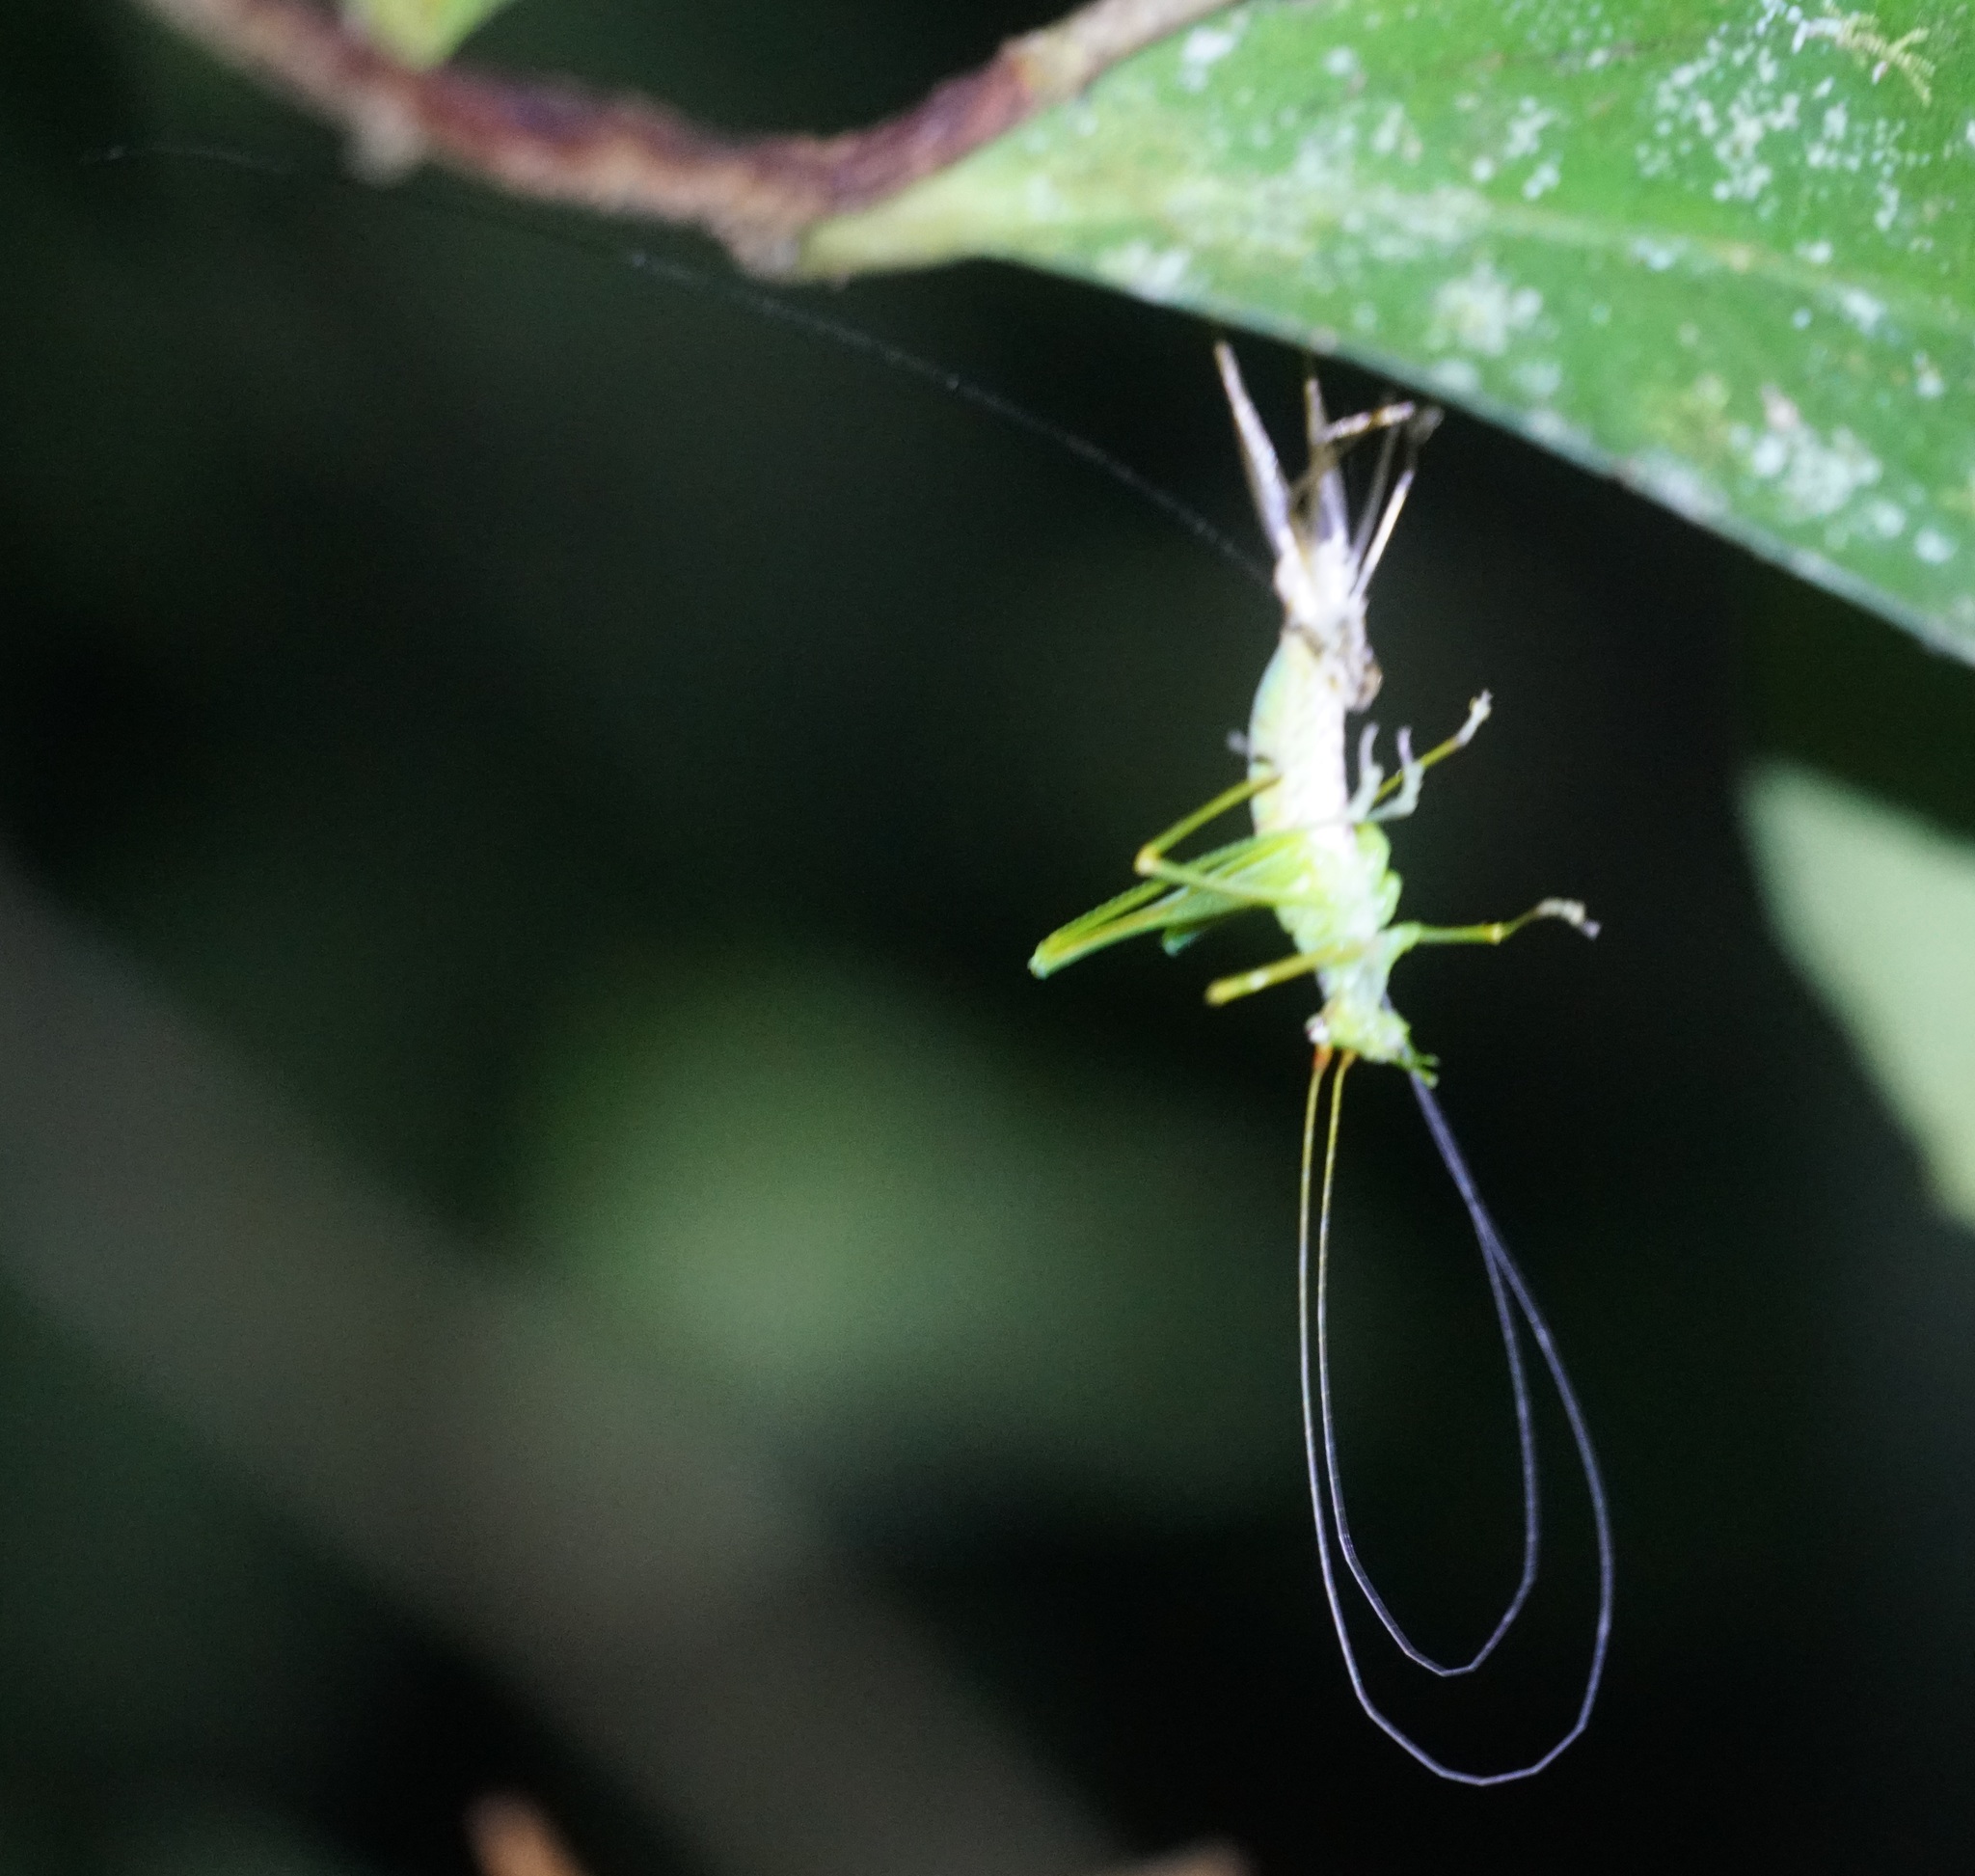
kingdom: Animalia
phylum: Arthropoda
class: Insecta
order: Orthoptera
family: Tettigoniidae
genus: Leucopodoptera
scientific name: Leucopodoptera eumundii
